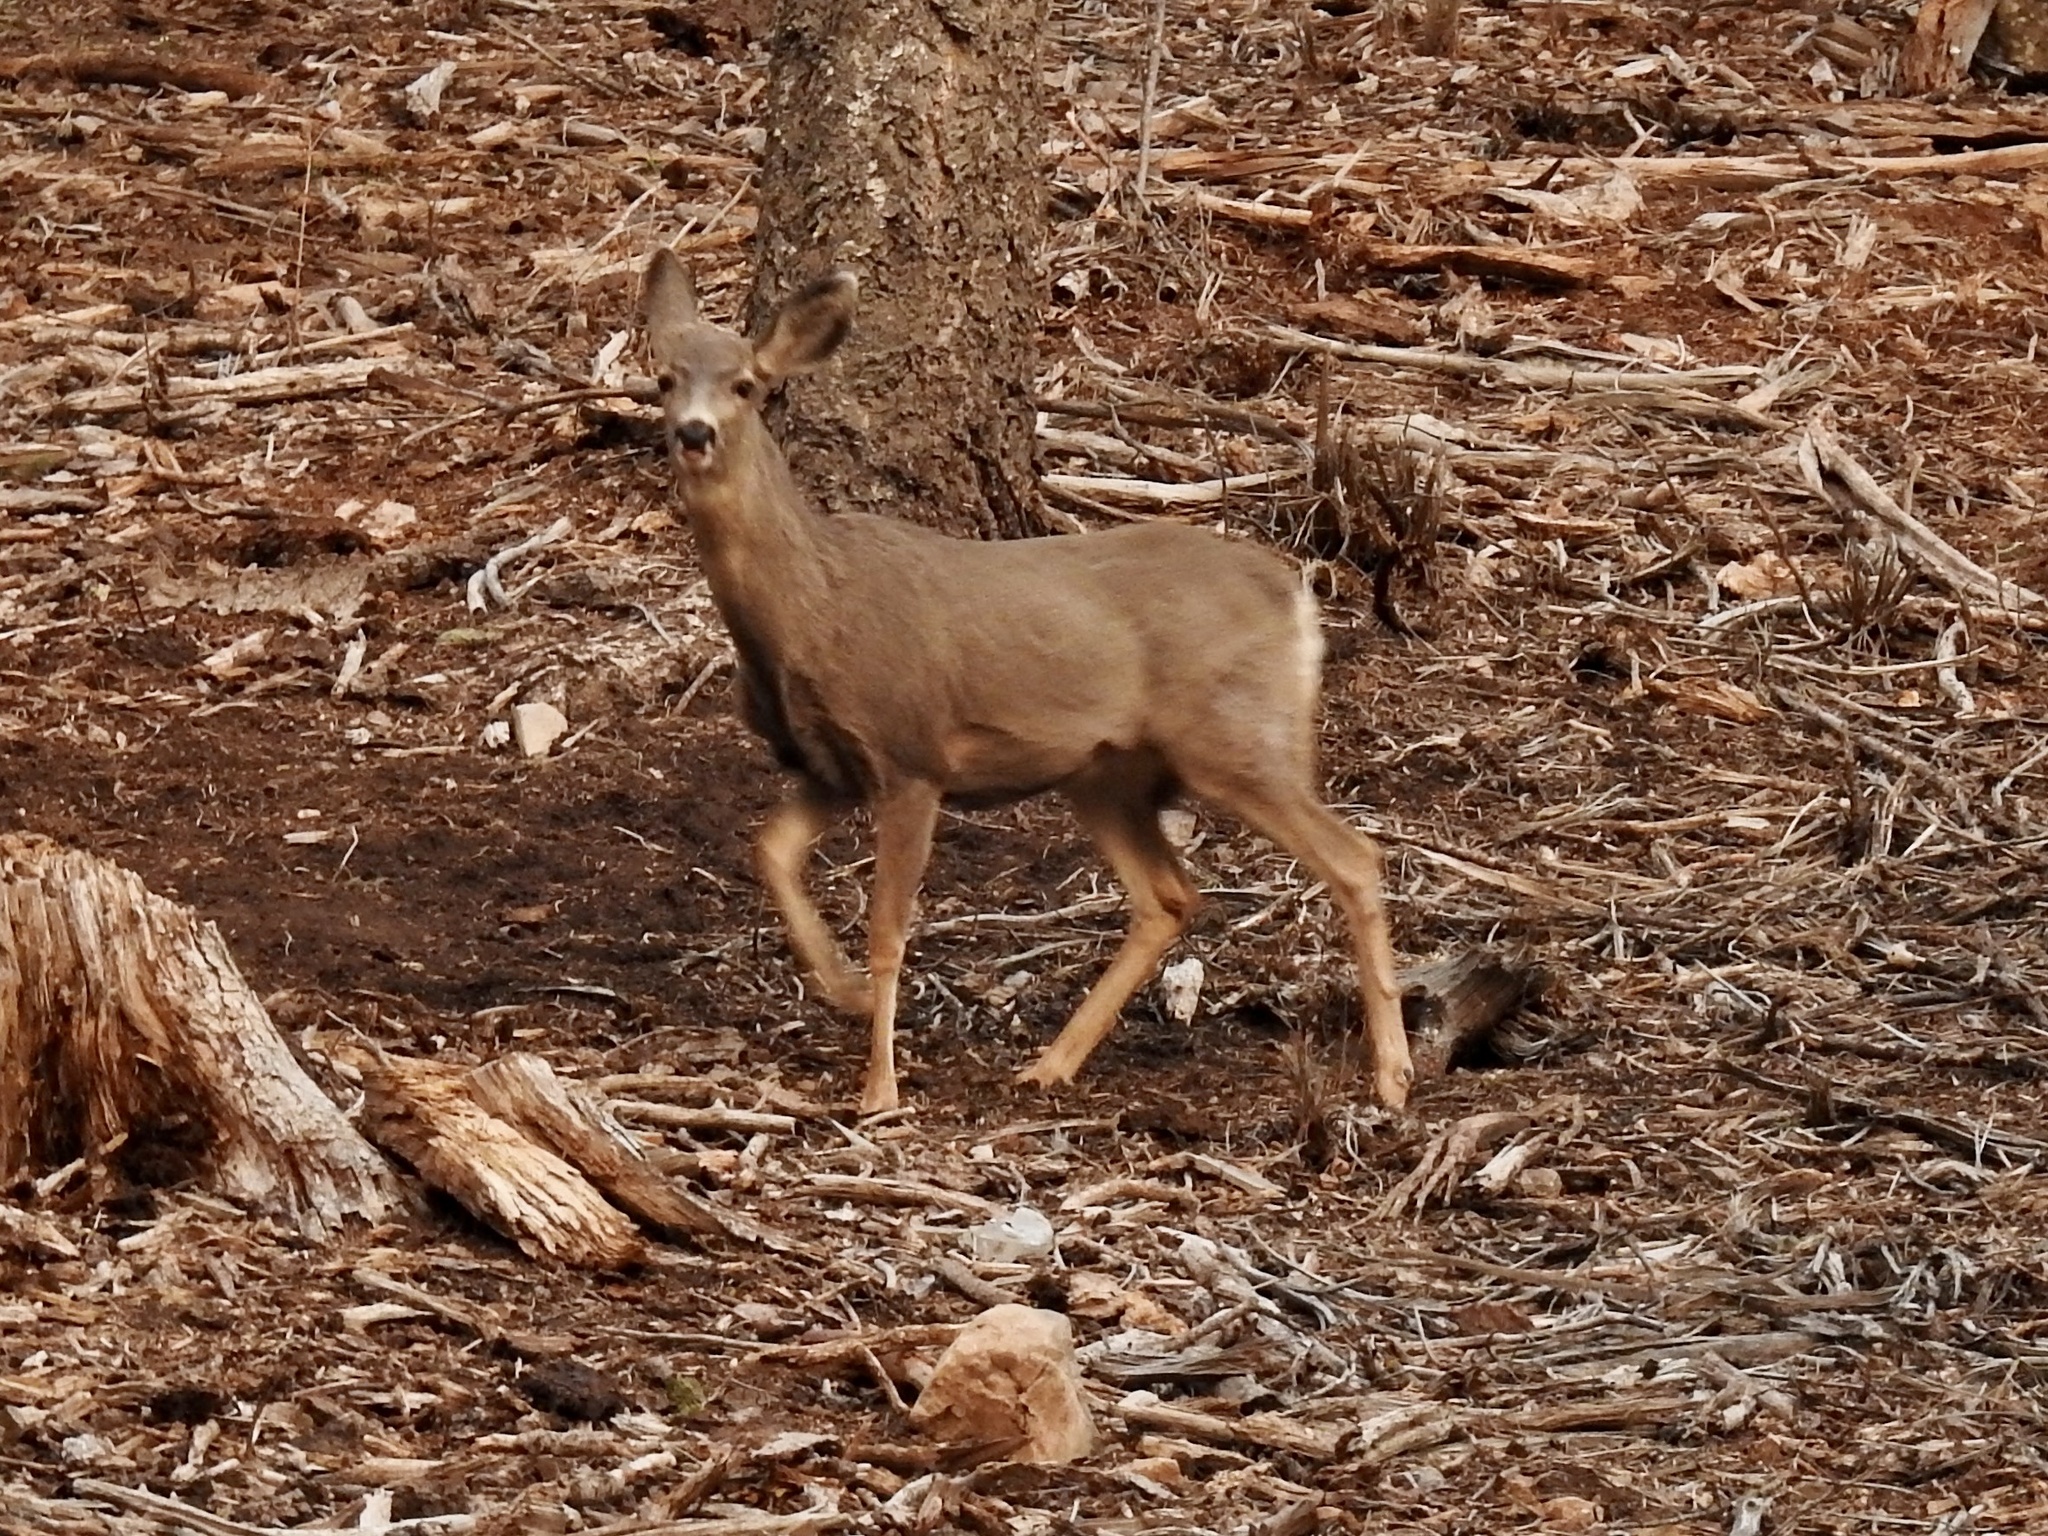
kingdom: Animalia
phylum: Chordata
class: Mammalia
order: Artiodactyla
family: Cervidae
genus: Odocoileus
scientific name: Odocoileus hemionus
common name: Mule deer
